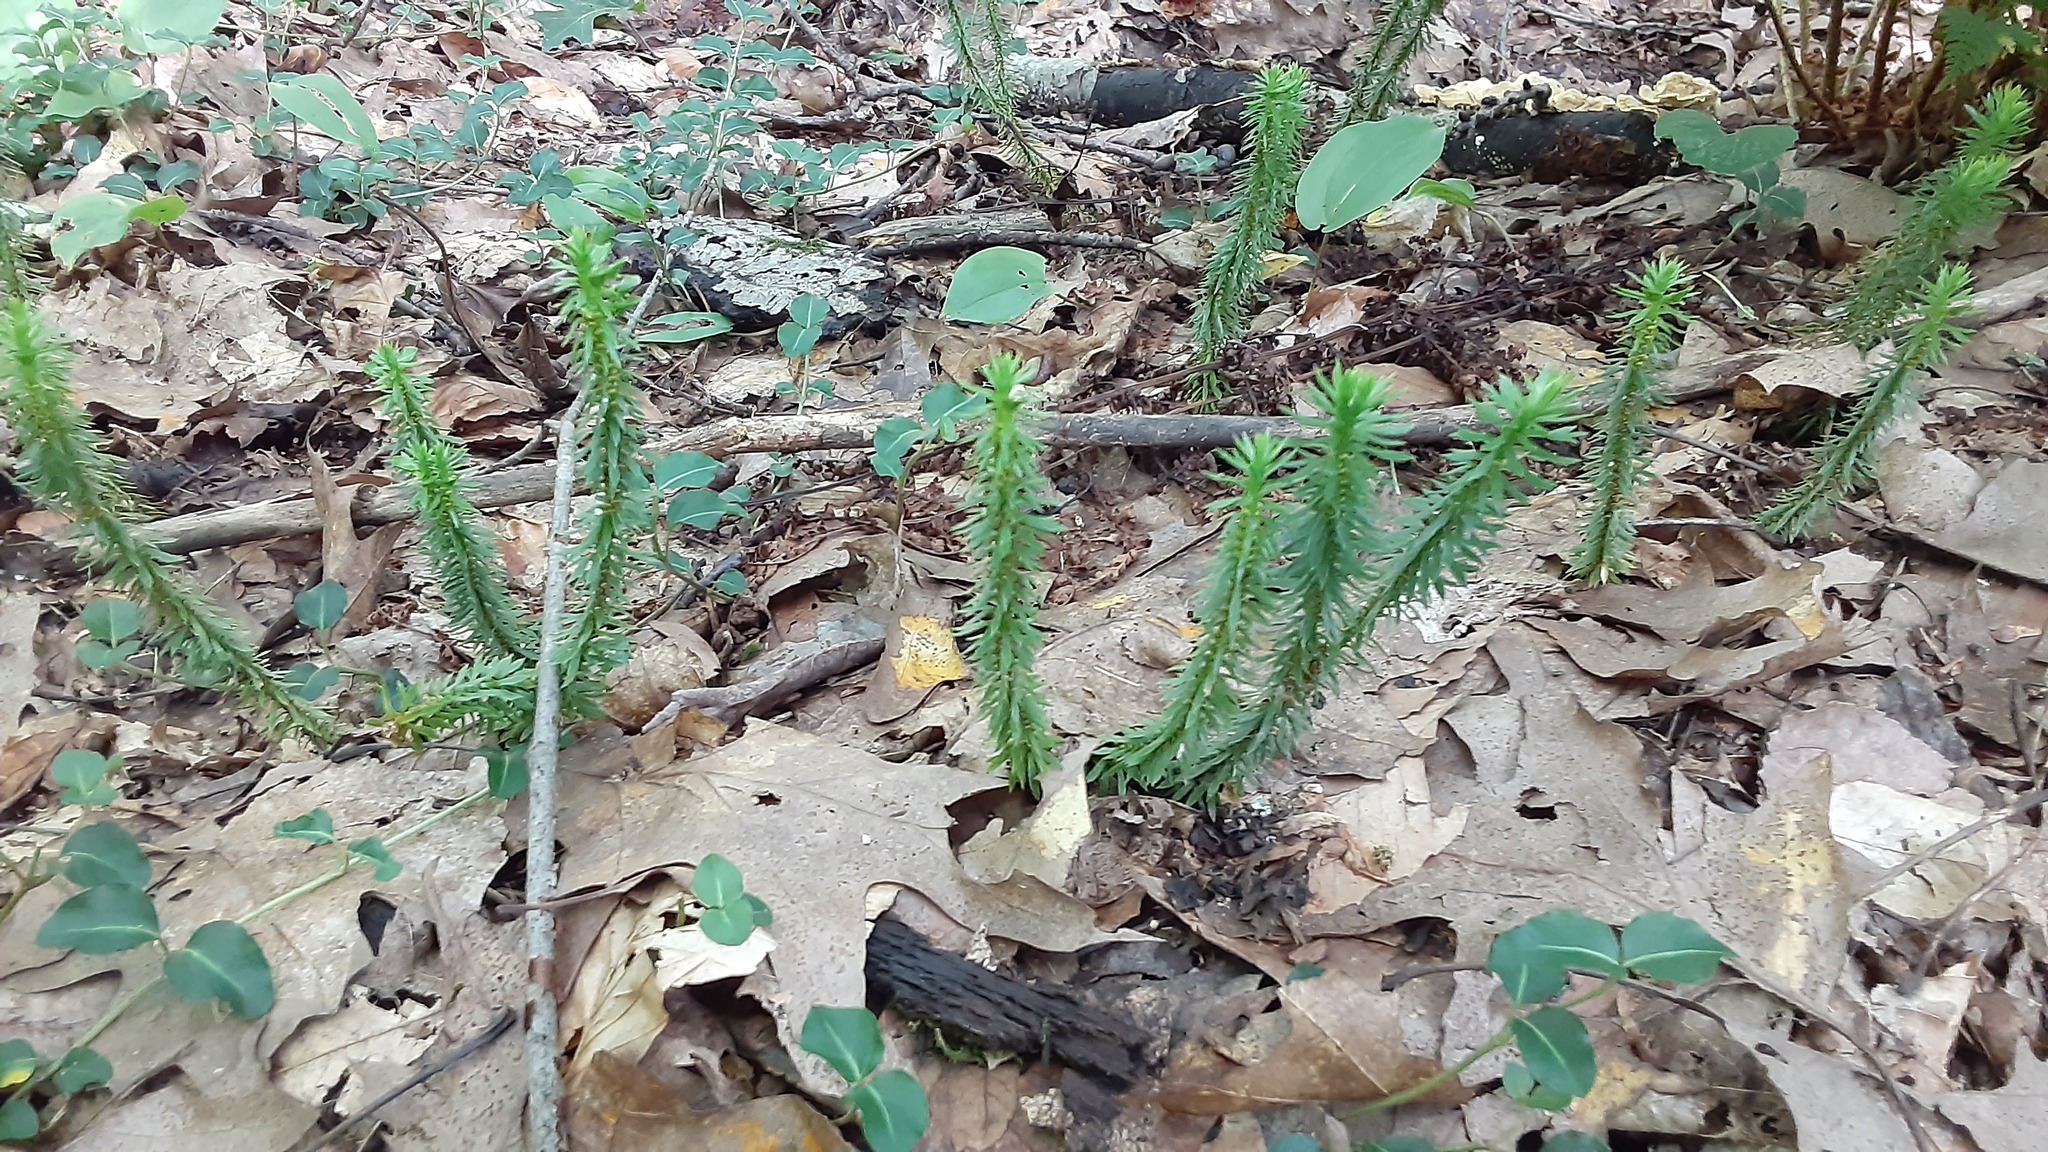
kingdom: Plantae
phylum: Tracheophyta
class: Lycopodiopsida
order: Lycopodiales
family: Lycopodiaceae
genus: Huperzia
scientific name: Huperzia lucidula
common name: Shining clubmoss
